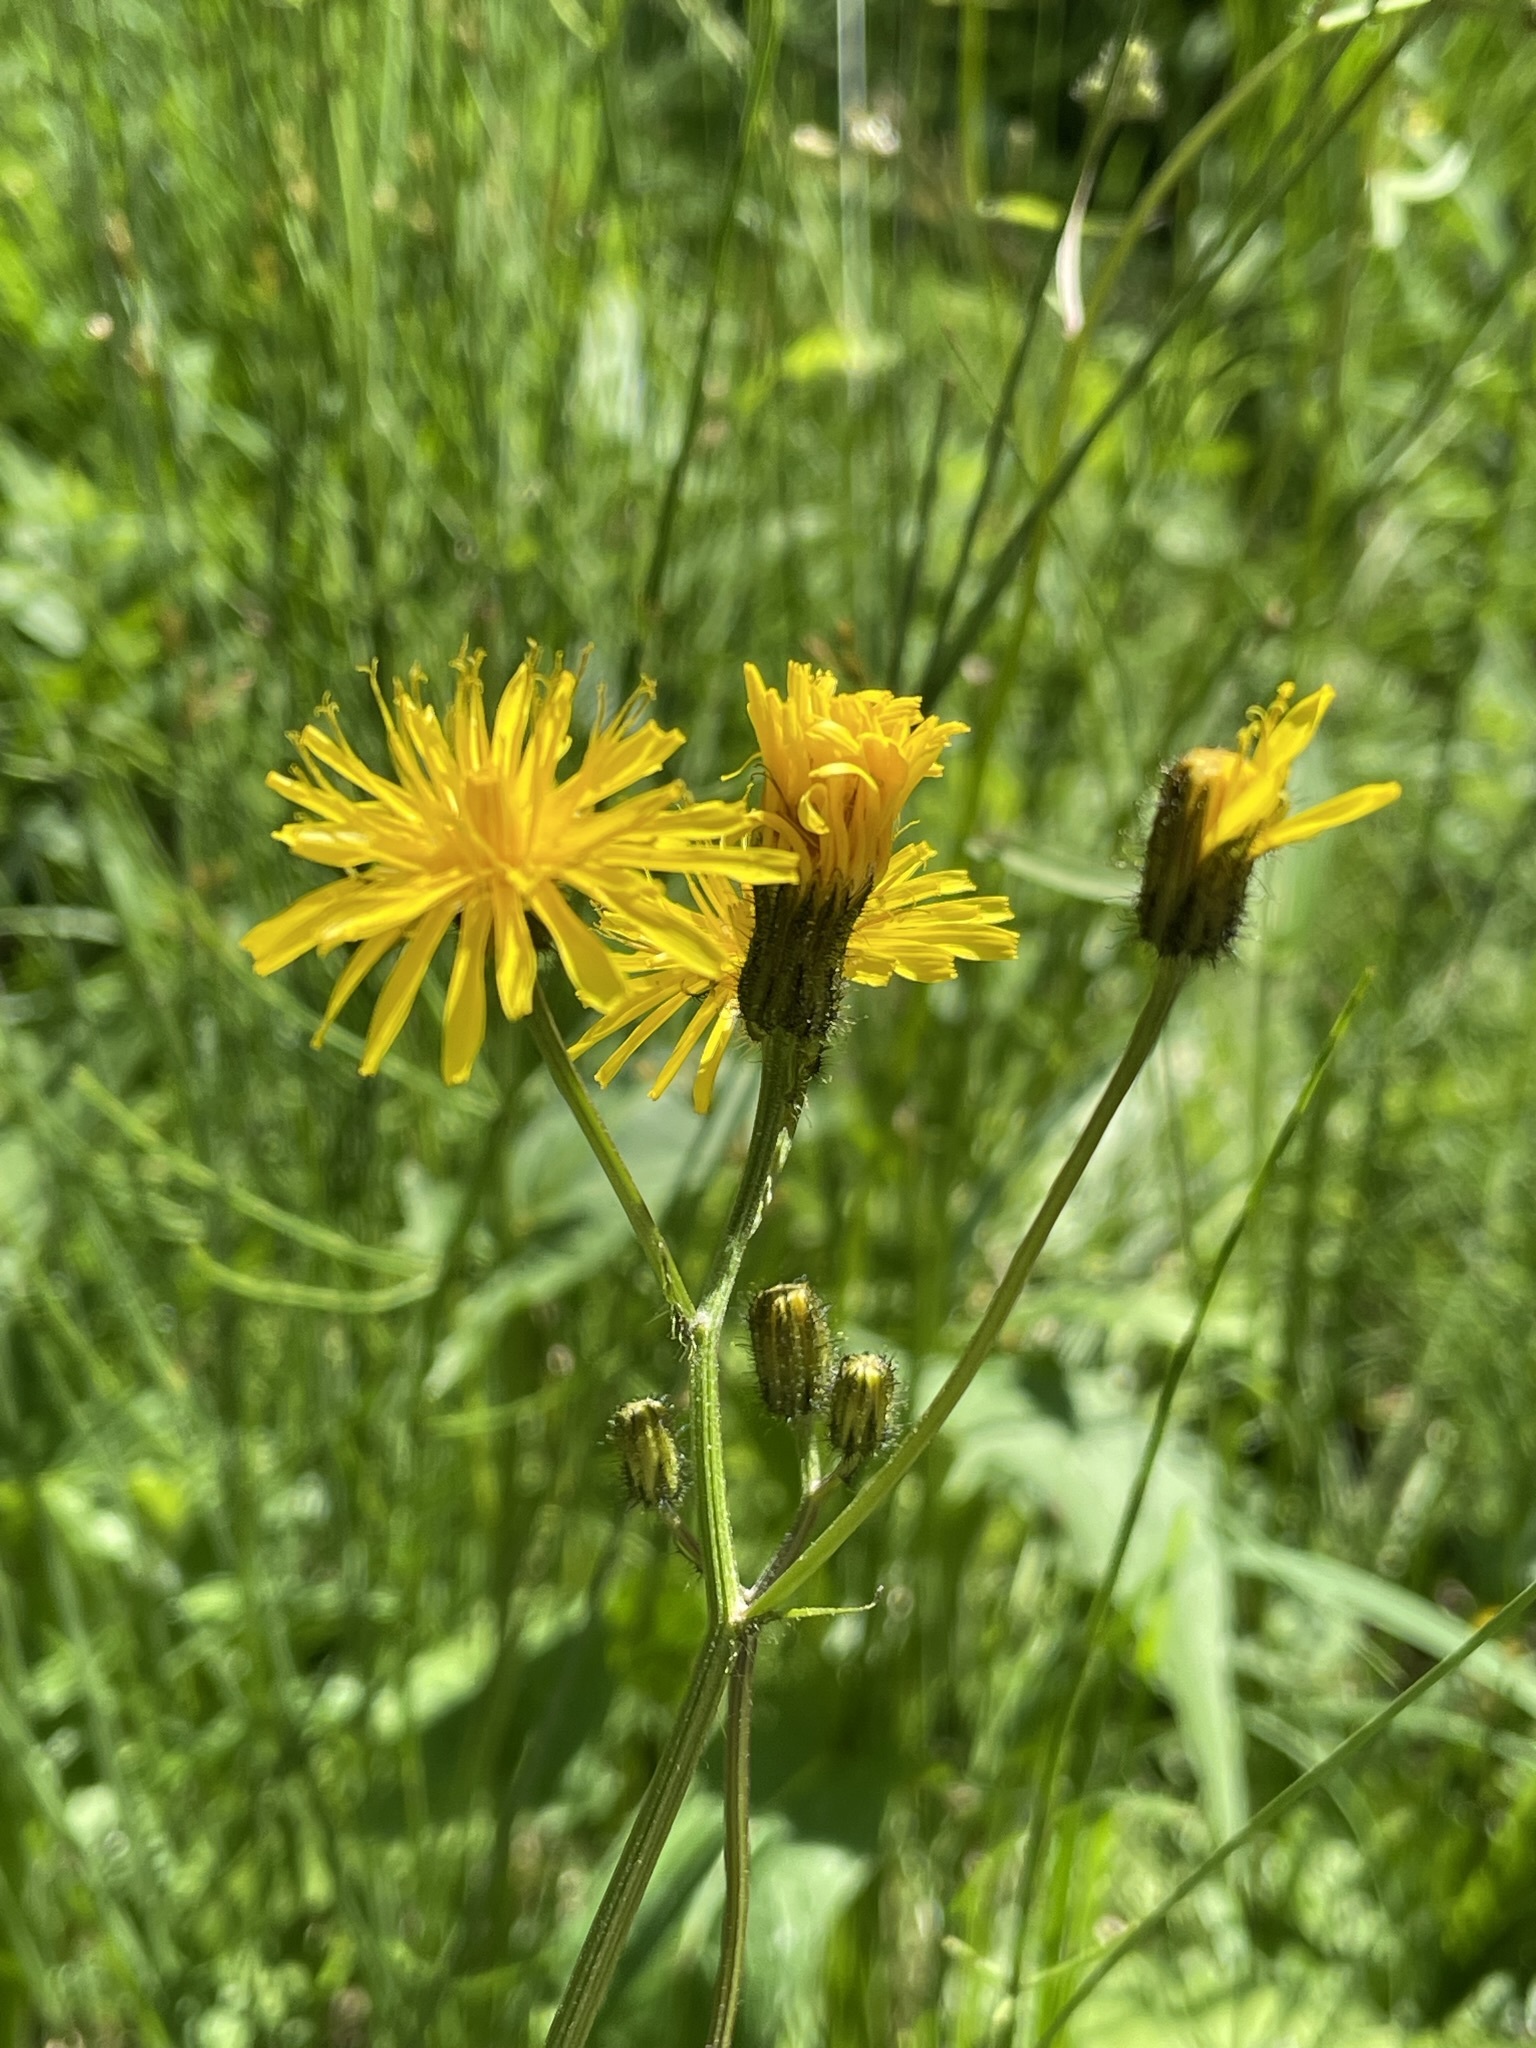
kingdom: Plantae
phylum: Tracheophyta
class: Magnoliopsida
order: Asterales
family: Asteraceae
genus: Crepis
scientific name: Crepis paludosa
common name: Marsh hawk's-beard
